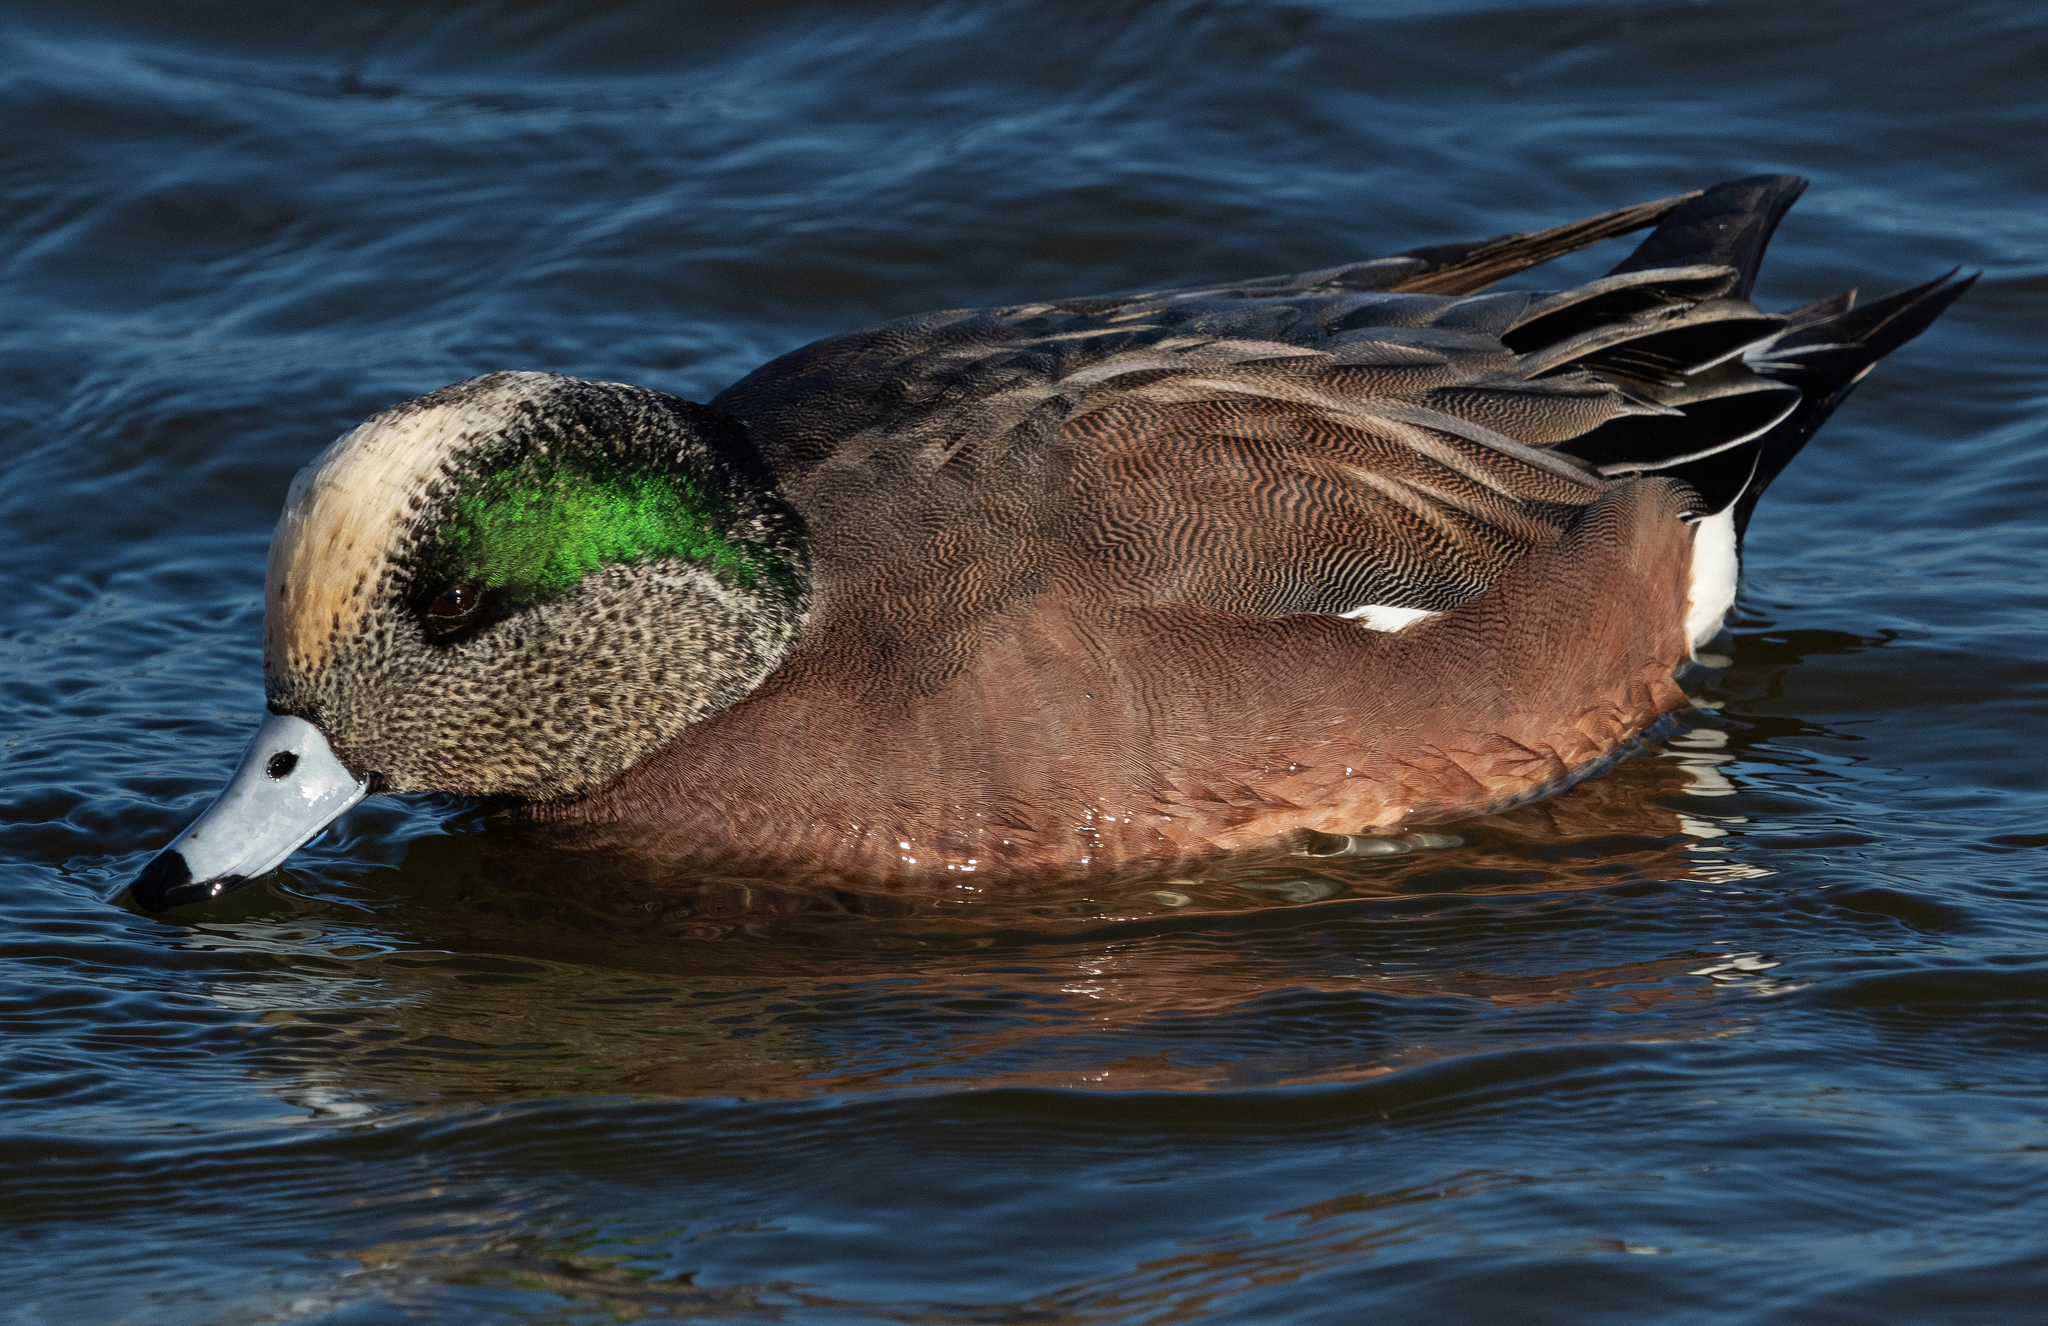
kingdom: Animalia
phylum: Chordata
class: Aves
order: Anseriformes
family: Anatidae
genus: Mareca
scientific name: Mareca americana
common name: American wigeon
